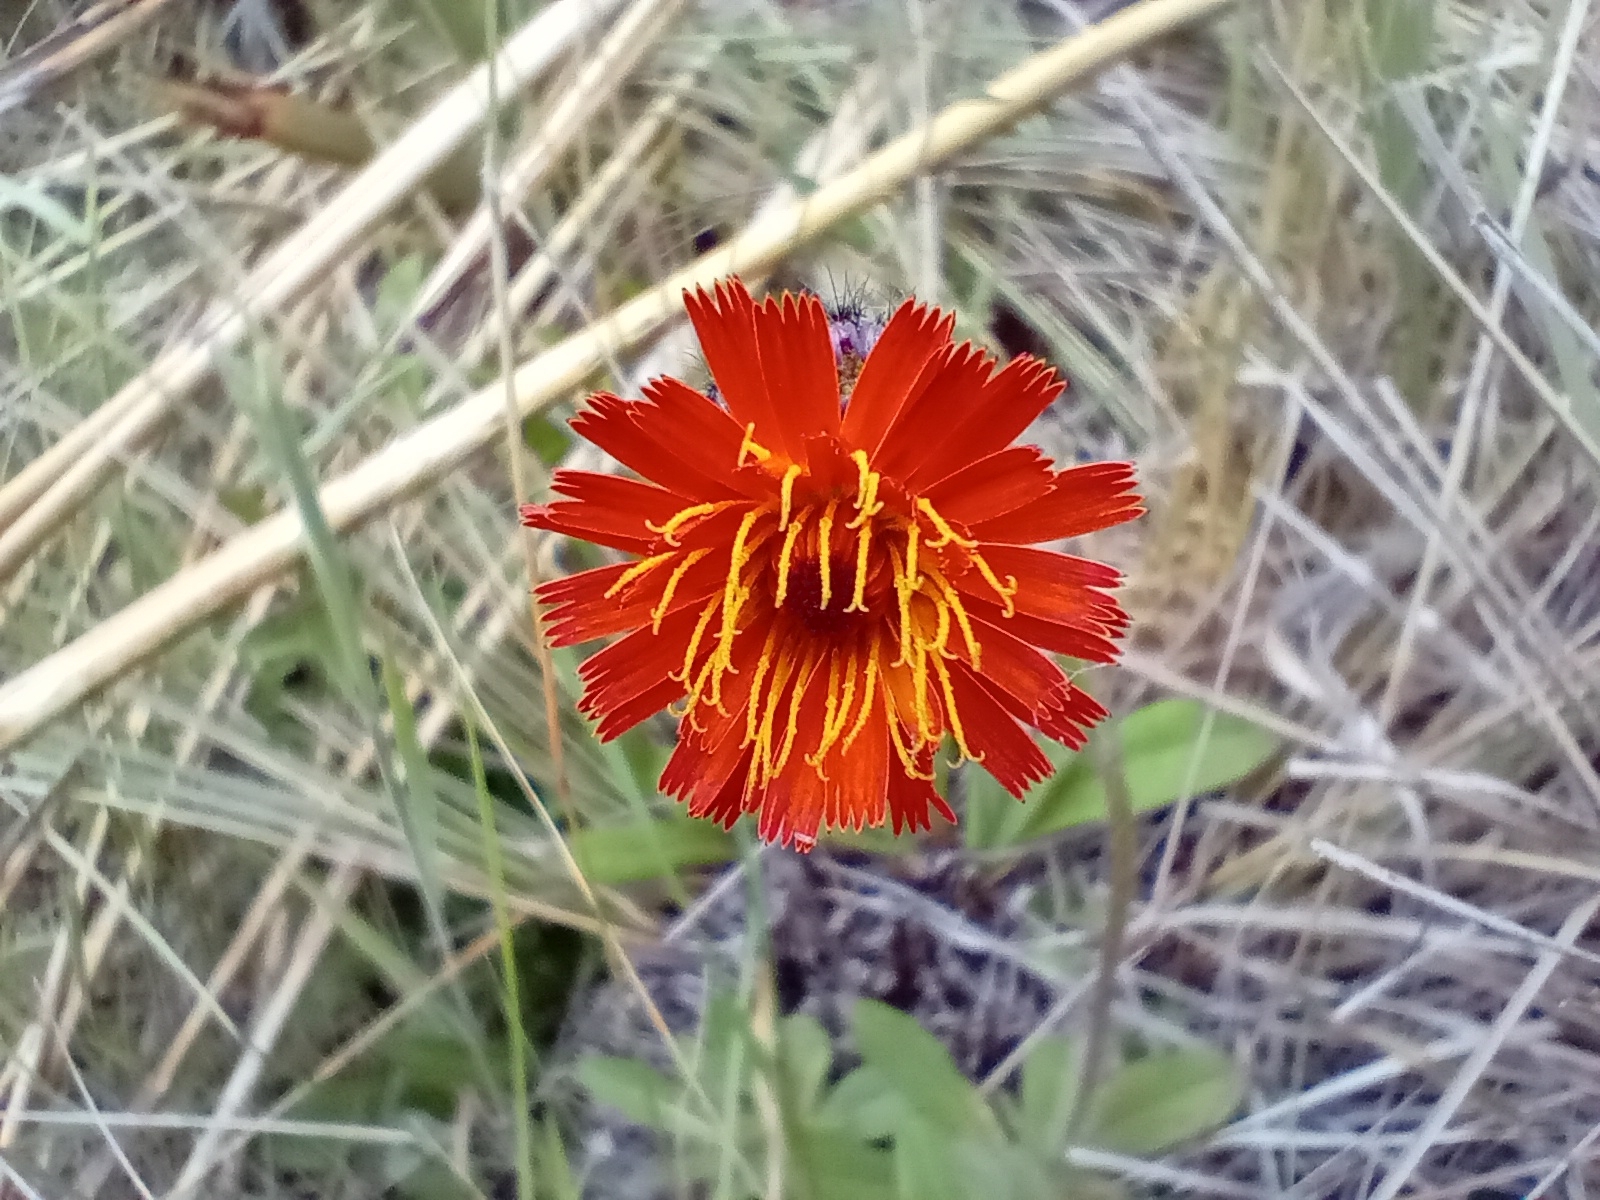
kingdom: Plantae
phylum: Tracheophyta
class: Magnoliopsida
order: Asterales
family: Asteraceae
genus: Pilosella
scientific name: Pilosella aurantiaca
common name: Fox-and-cubs
